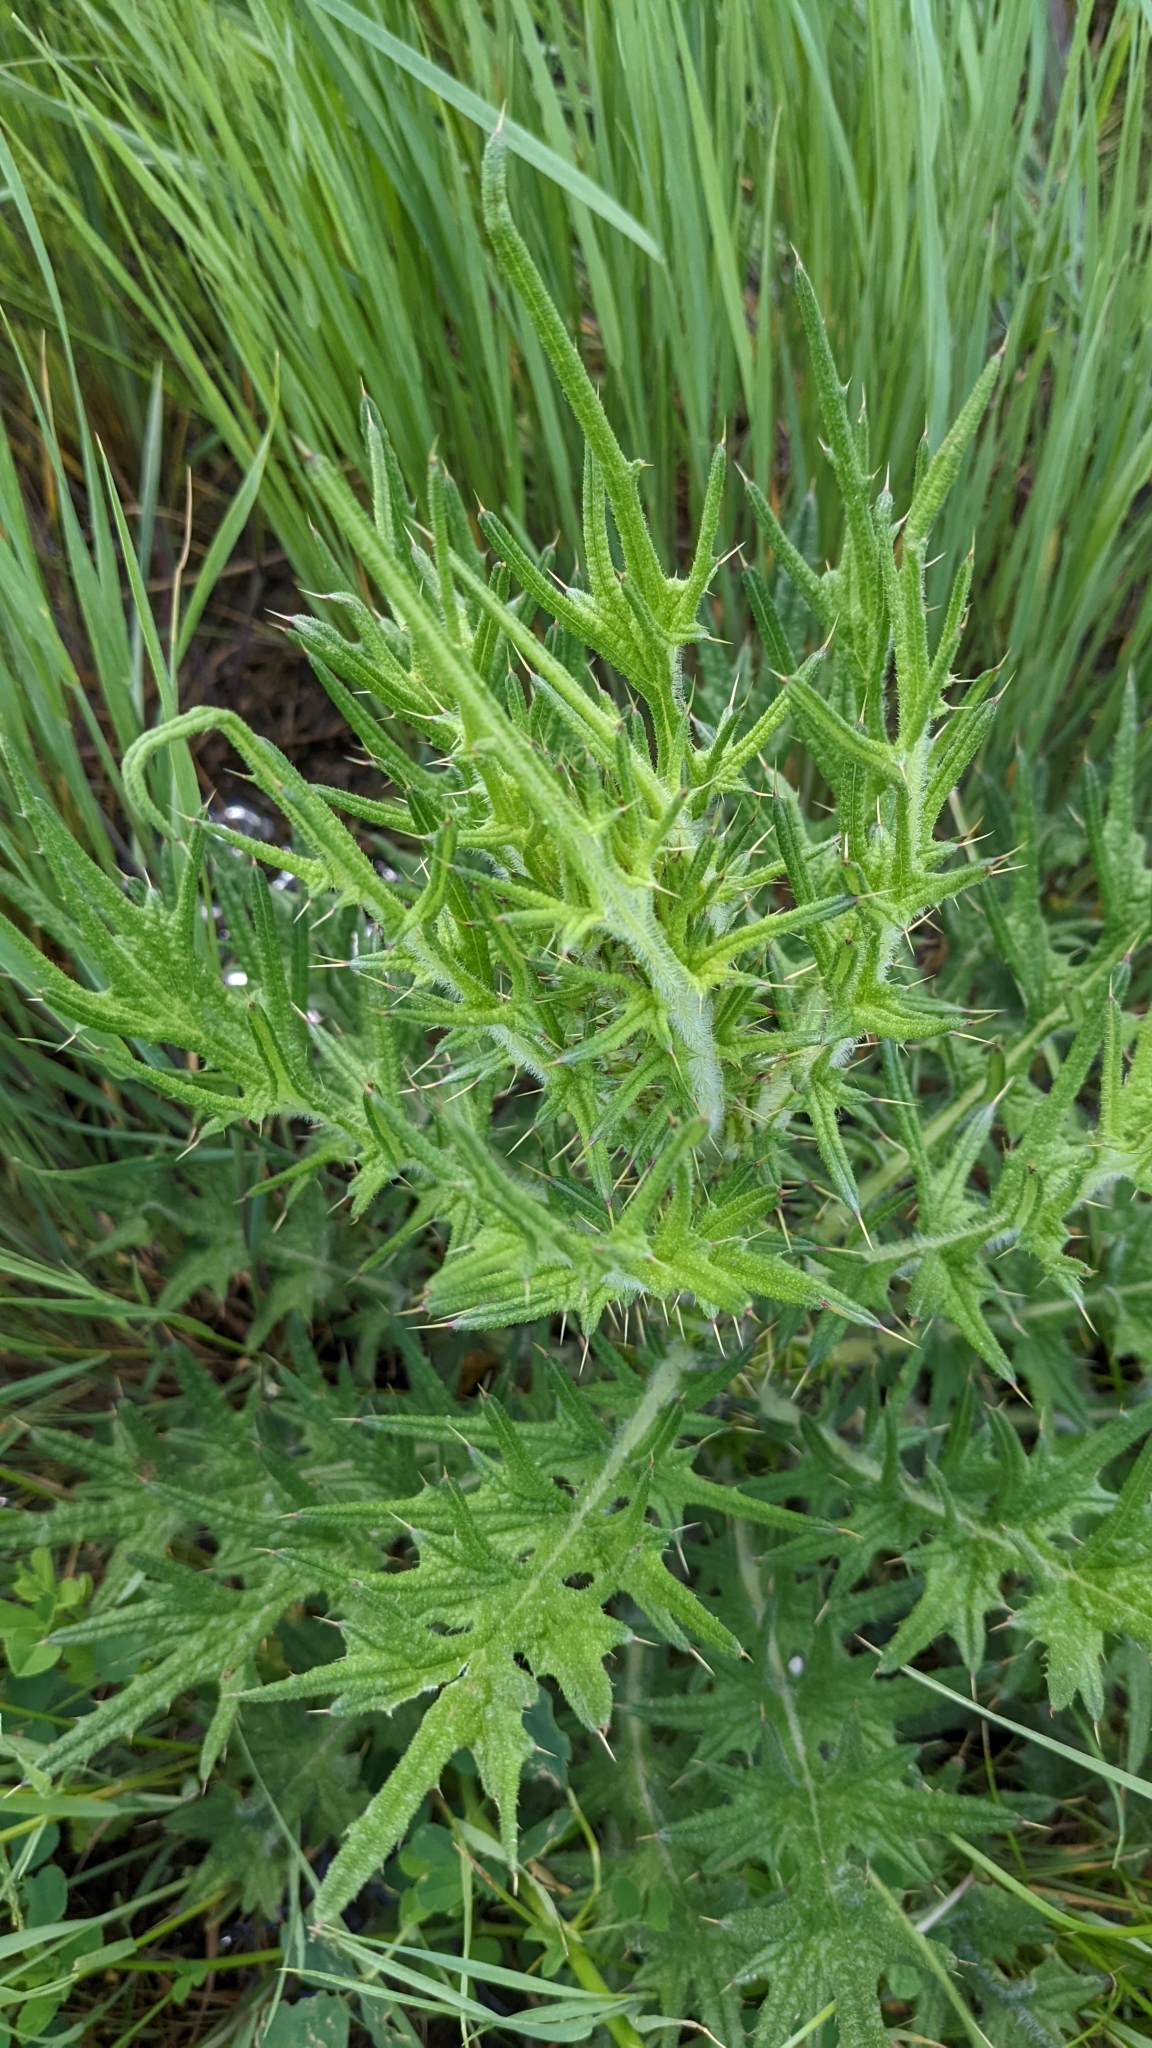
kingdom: Plantae
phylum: Tracheophyta
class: Magnoliopsida
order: Asterales
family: Asteraceae
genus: Cirsium
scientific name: Cirsium vulgare
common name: Bull thistle
